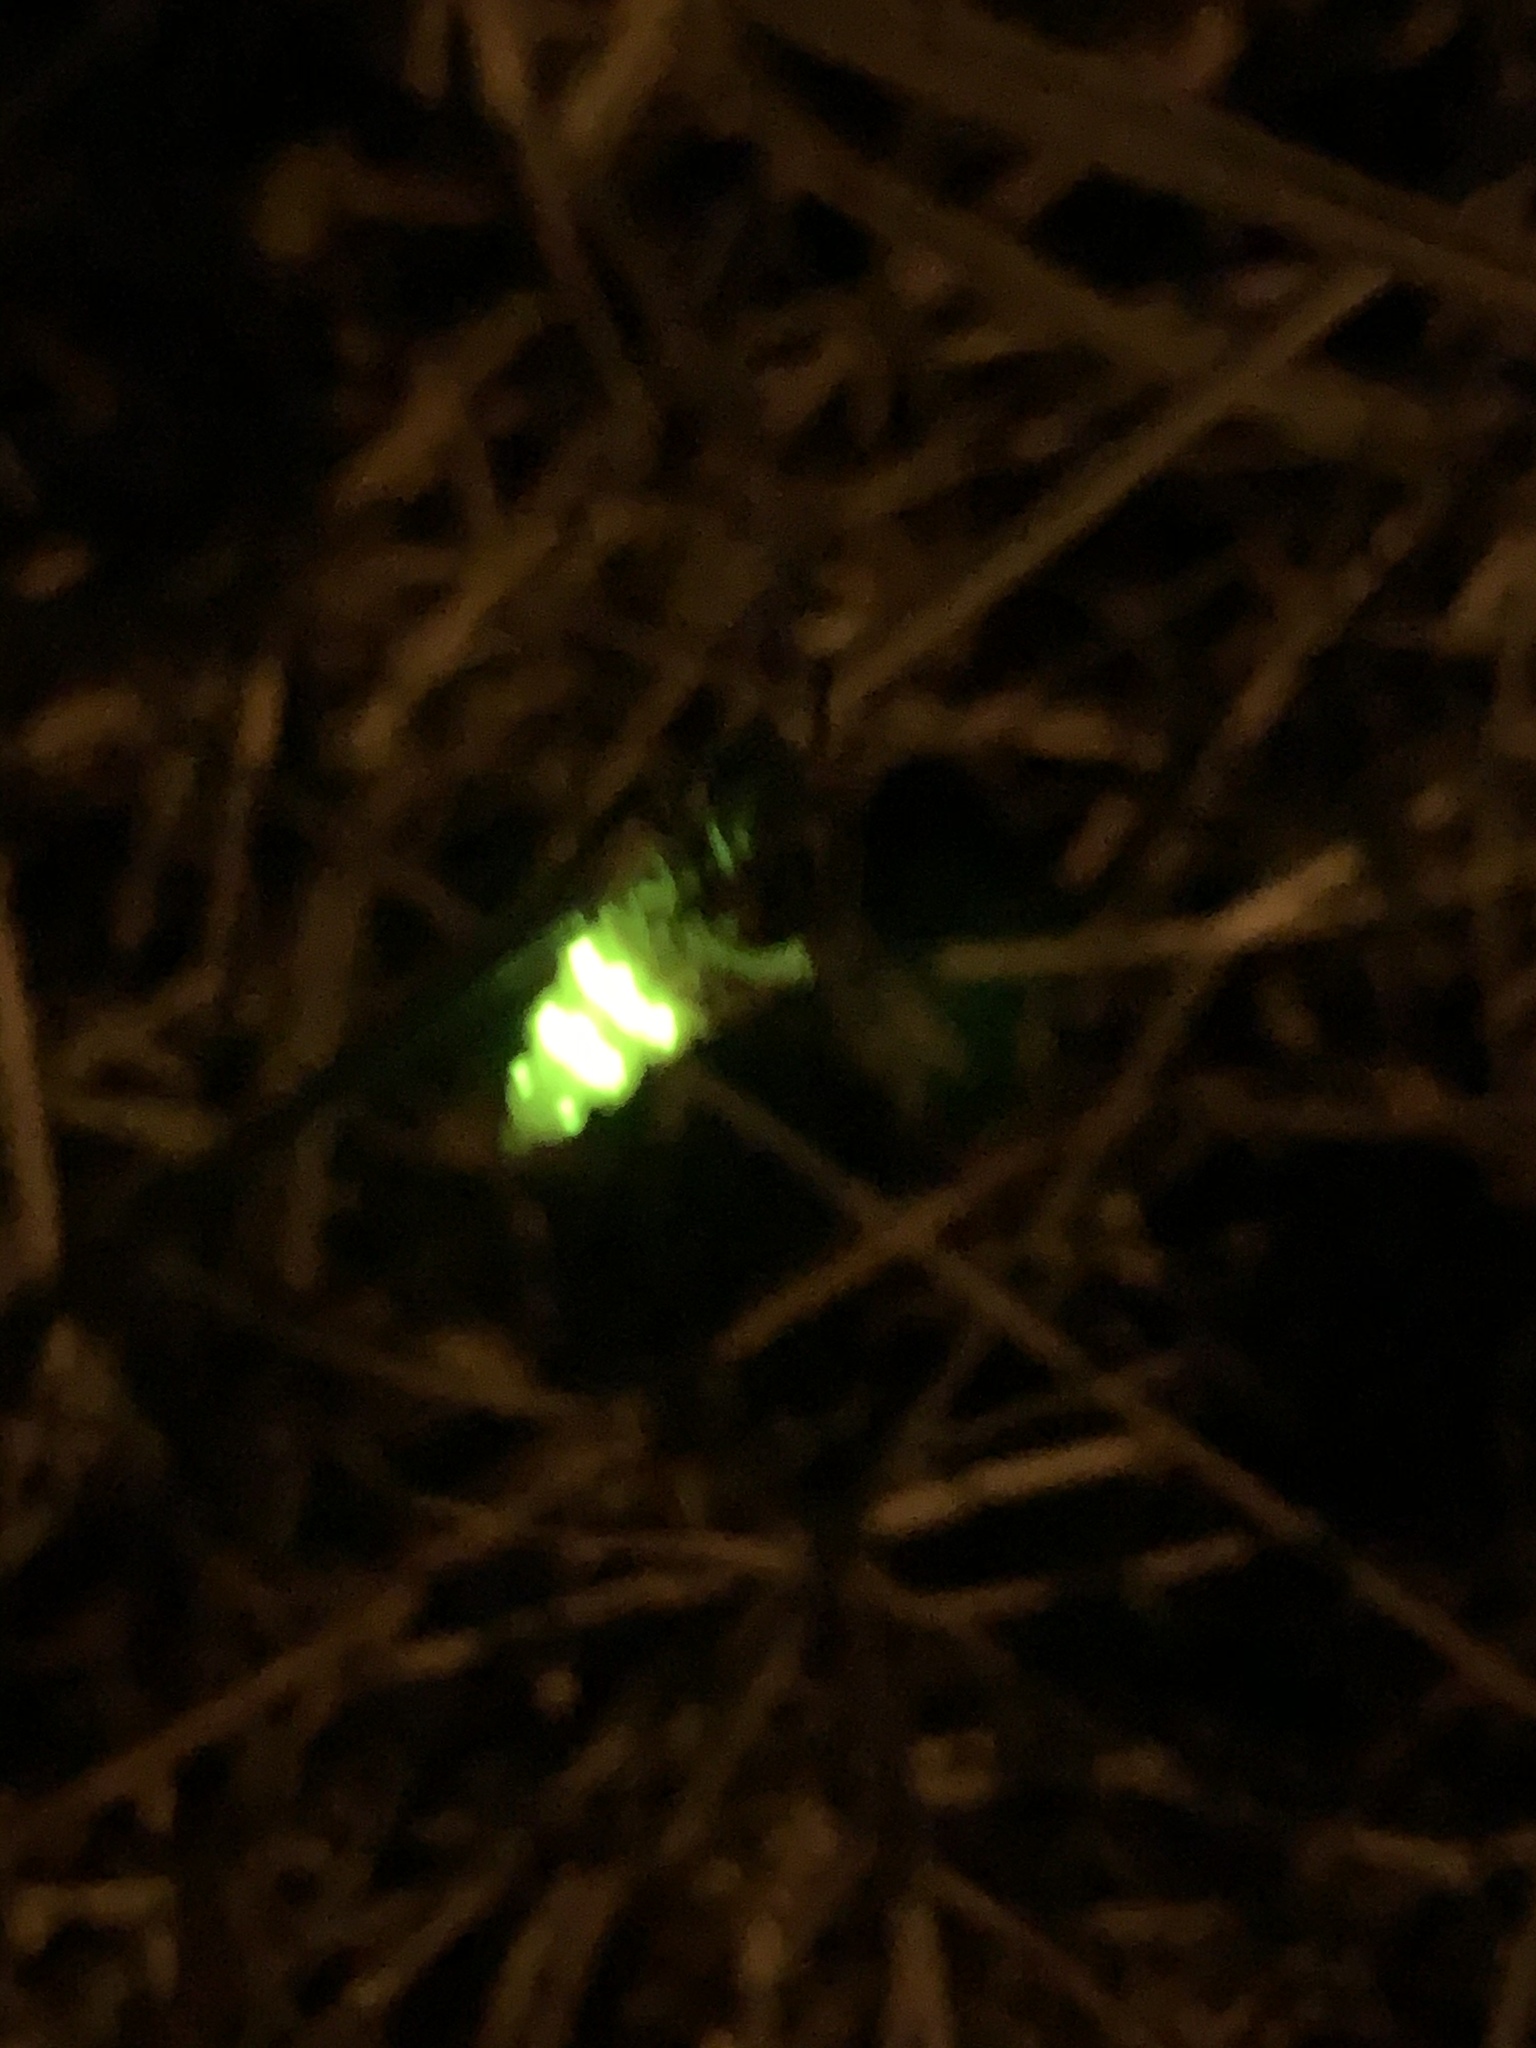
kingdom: Animalia
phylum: Arthropoda
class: Insecta
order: Coleoptera
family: Lampyridae
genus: Lampyris
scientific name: Lampyris noctiluca
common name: Glow-worm
